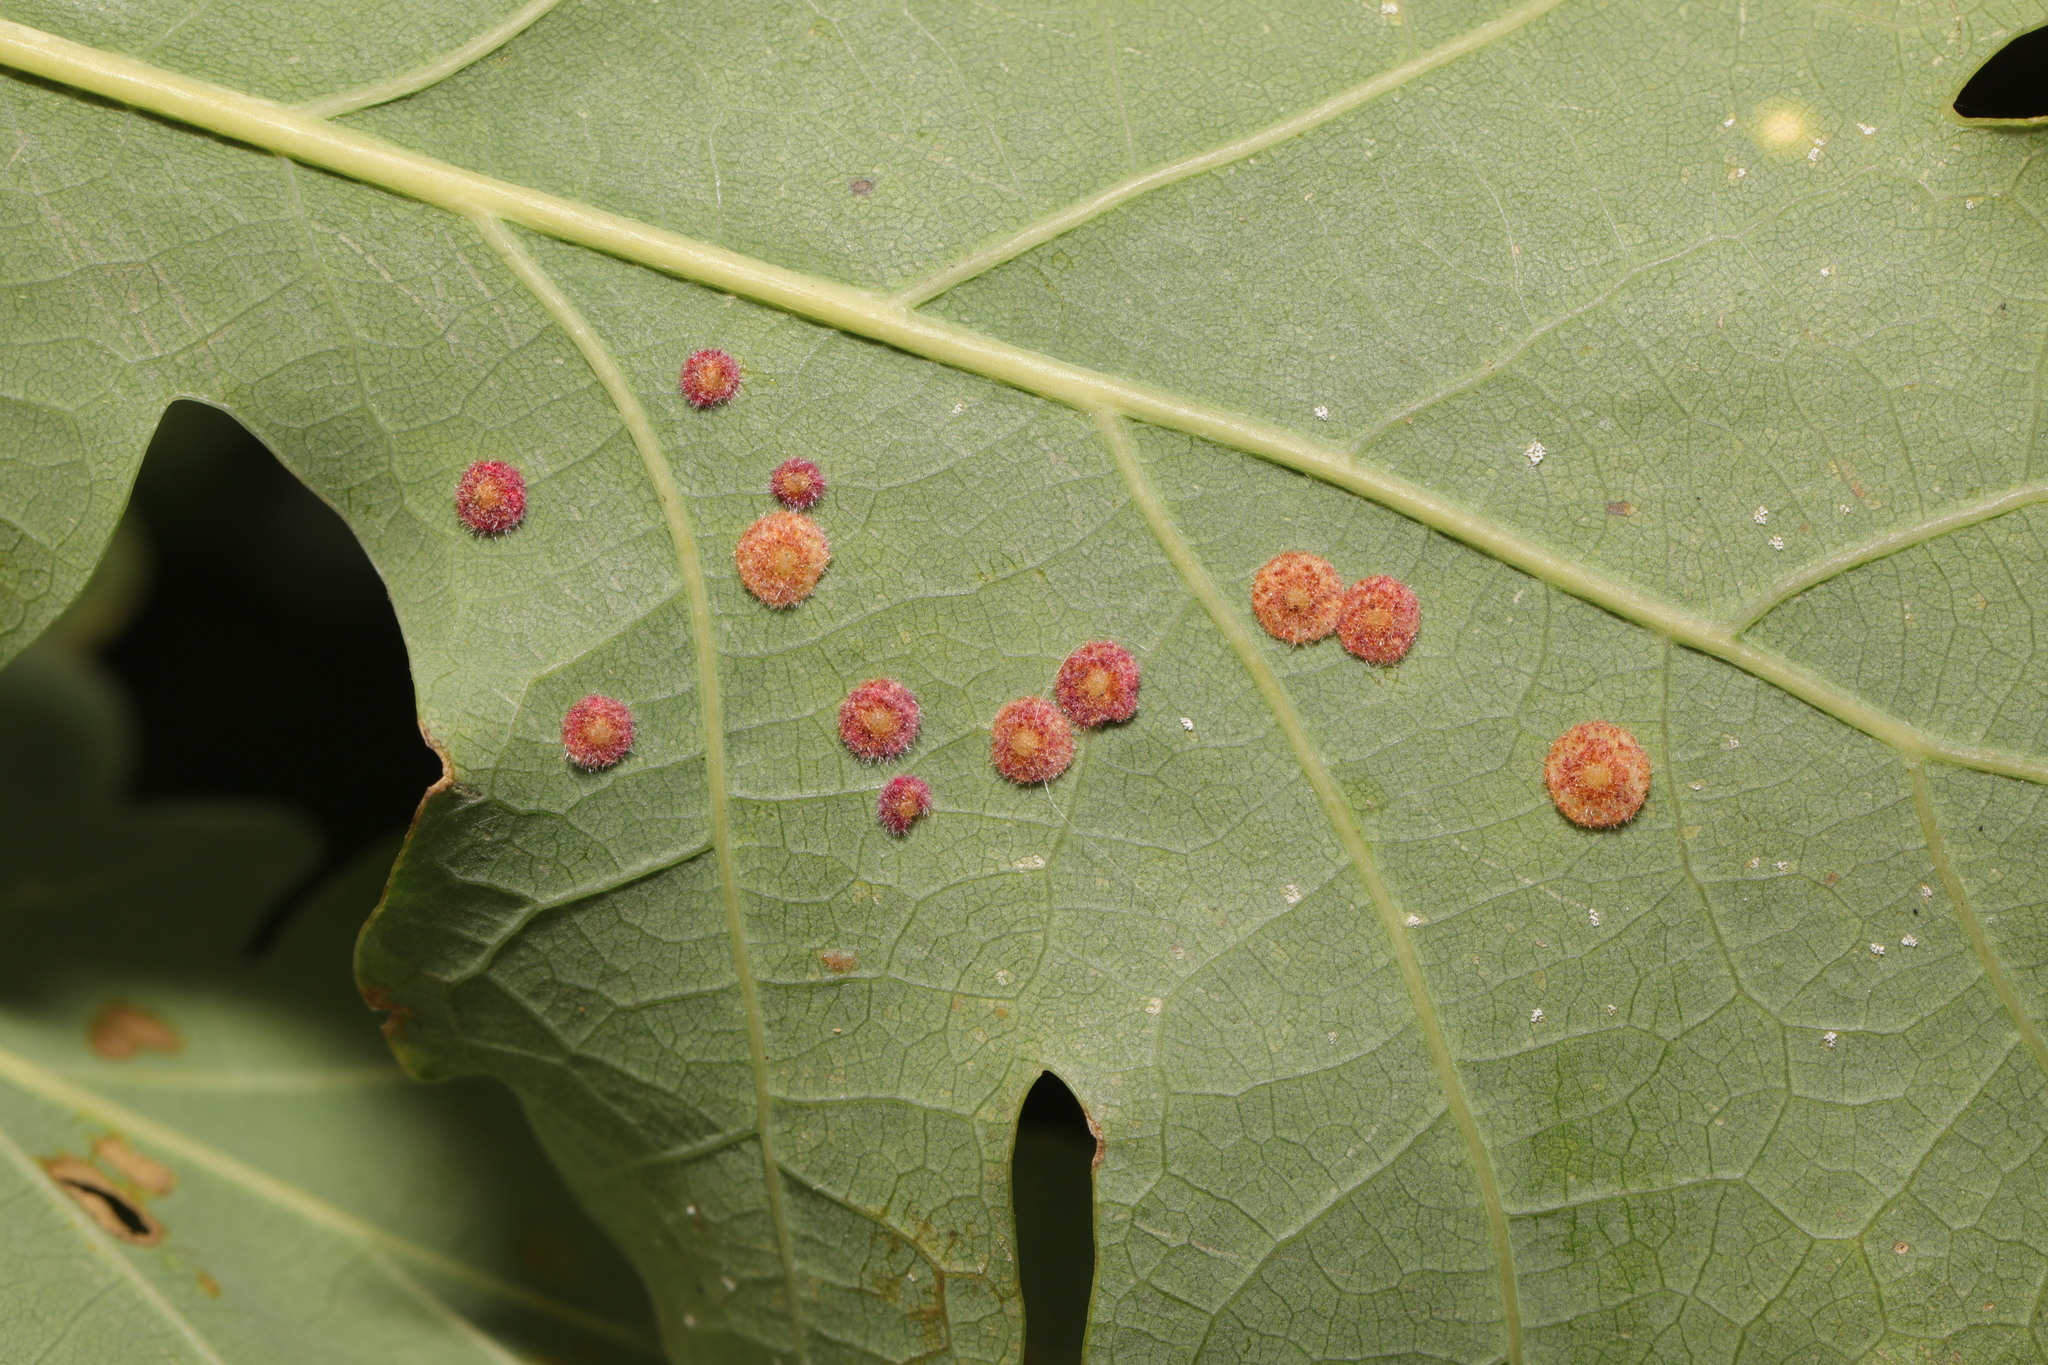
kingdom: Animalia
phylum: Arthropoda
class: Insecta
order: Hymenoptera
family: Cynipidae
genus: Neuroterus
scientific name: Neuroterus quercusbaccarum
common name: Common spangle gall
